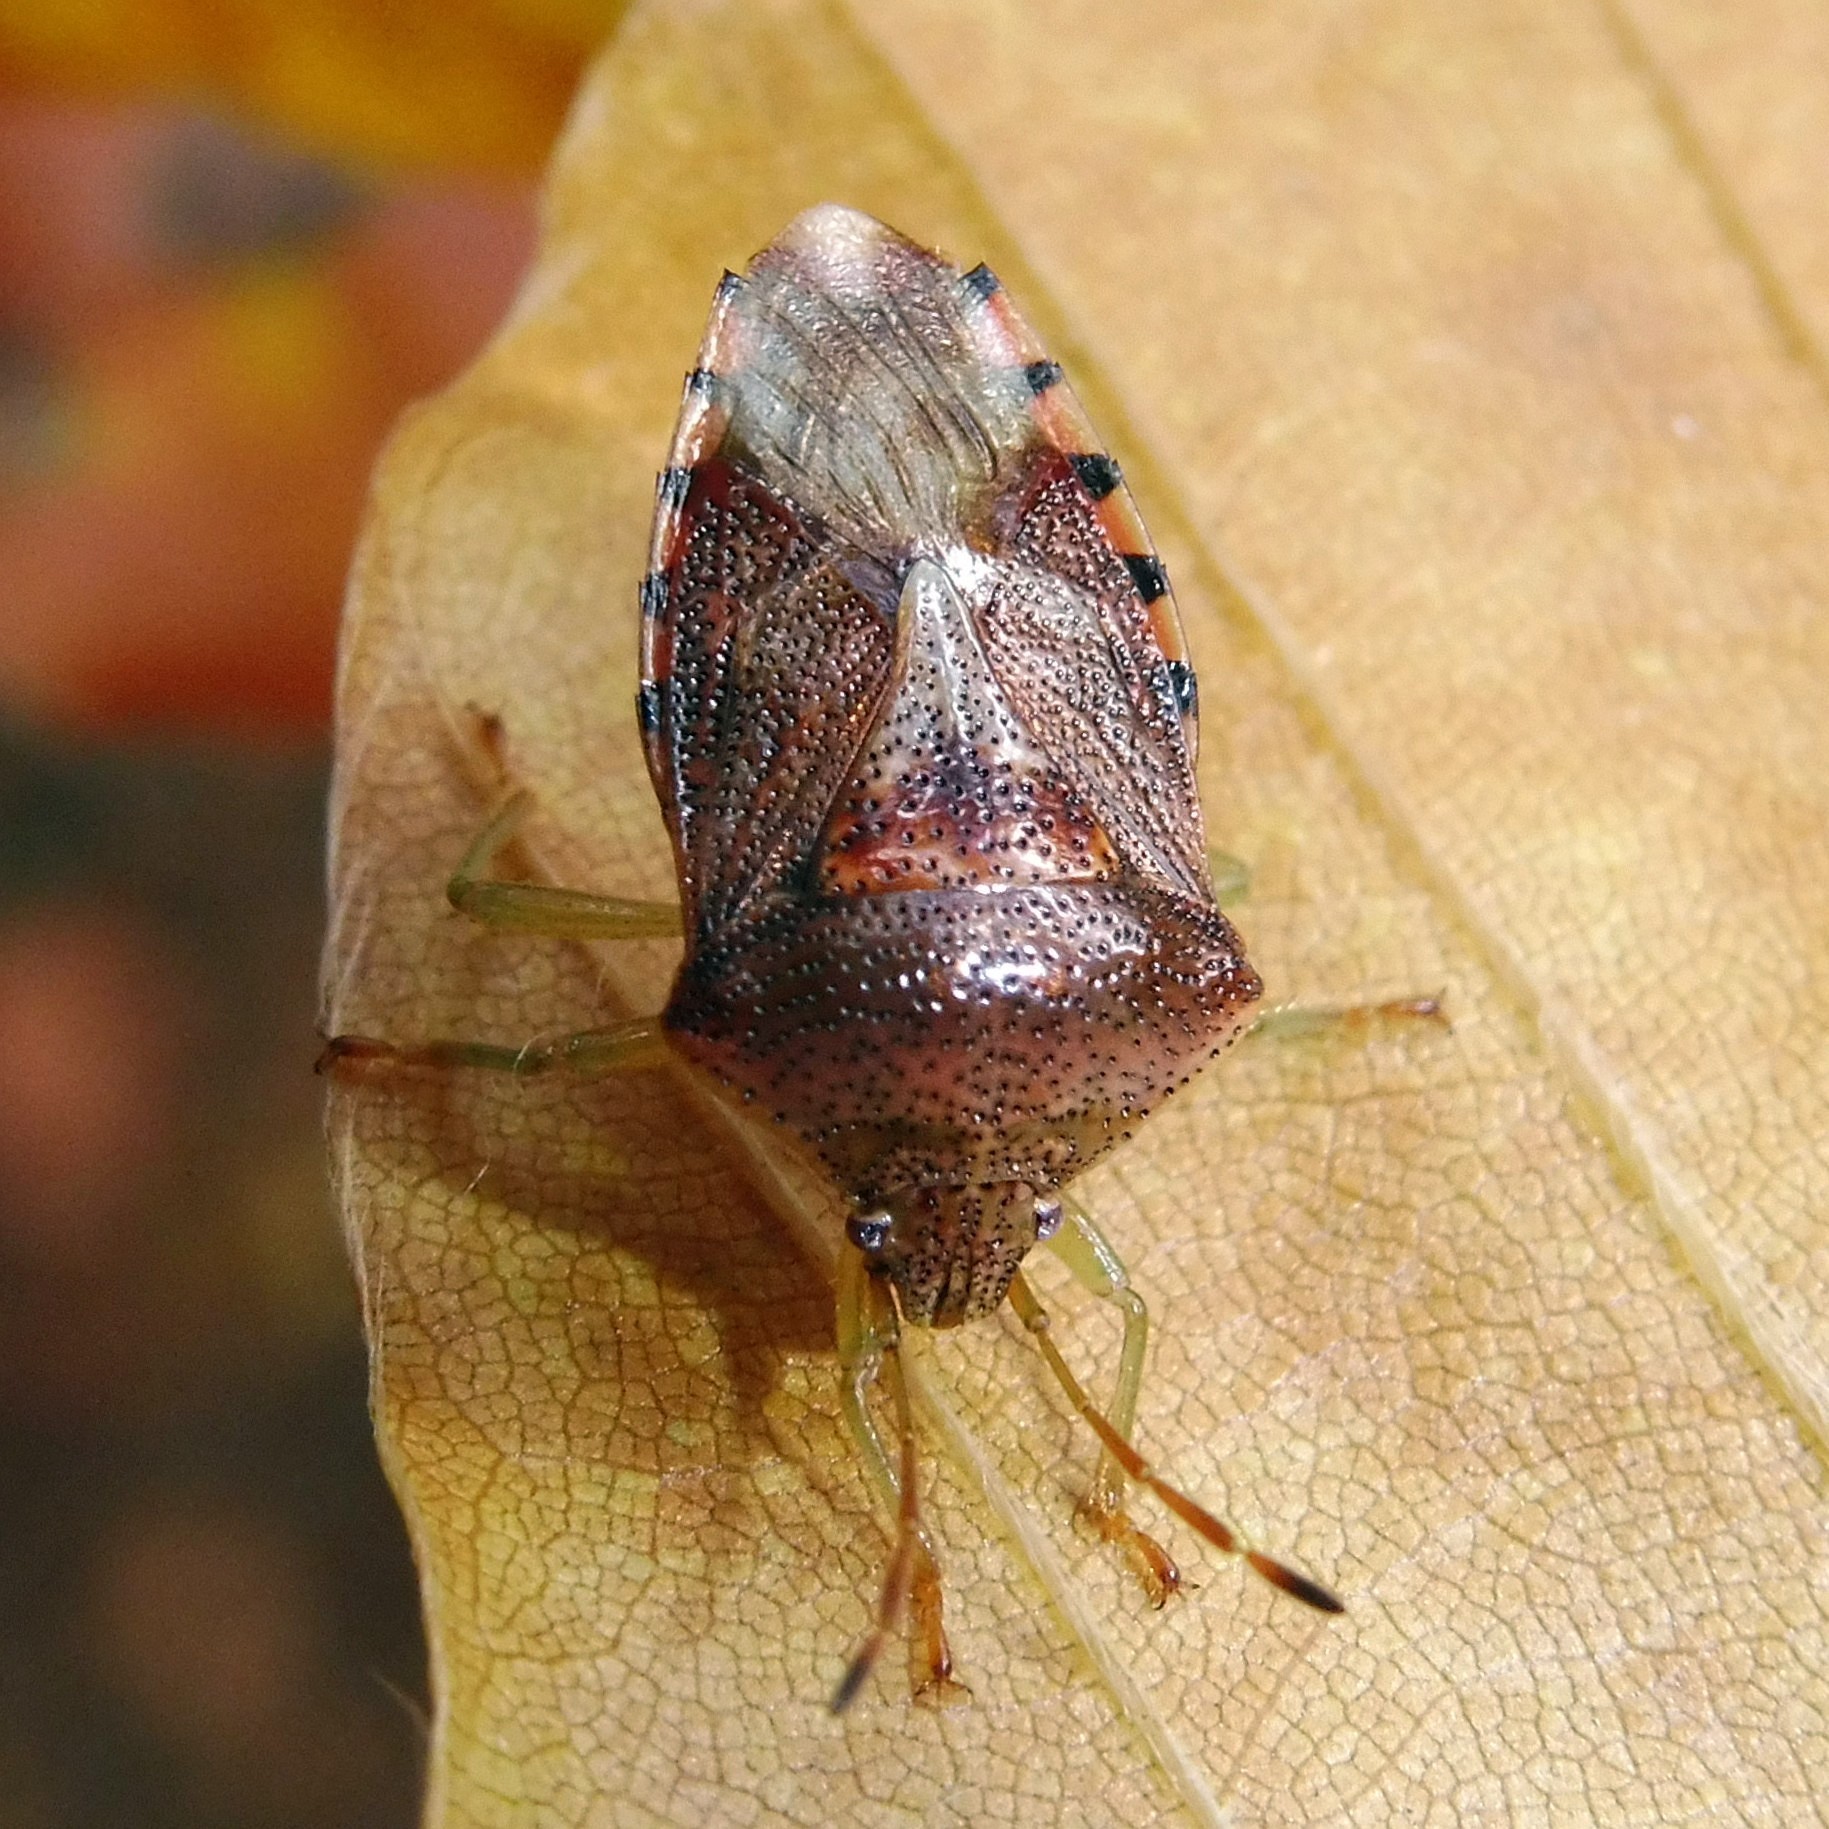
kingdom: Animalia
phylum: Arthropoda
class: Insecta
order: Hemiptera
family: Acanthosomatidae
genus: Elasmucha
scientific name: Elasmucha grisea
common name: Parent bug
